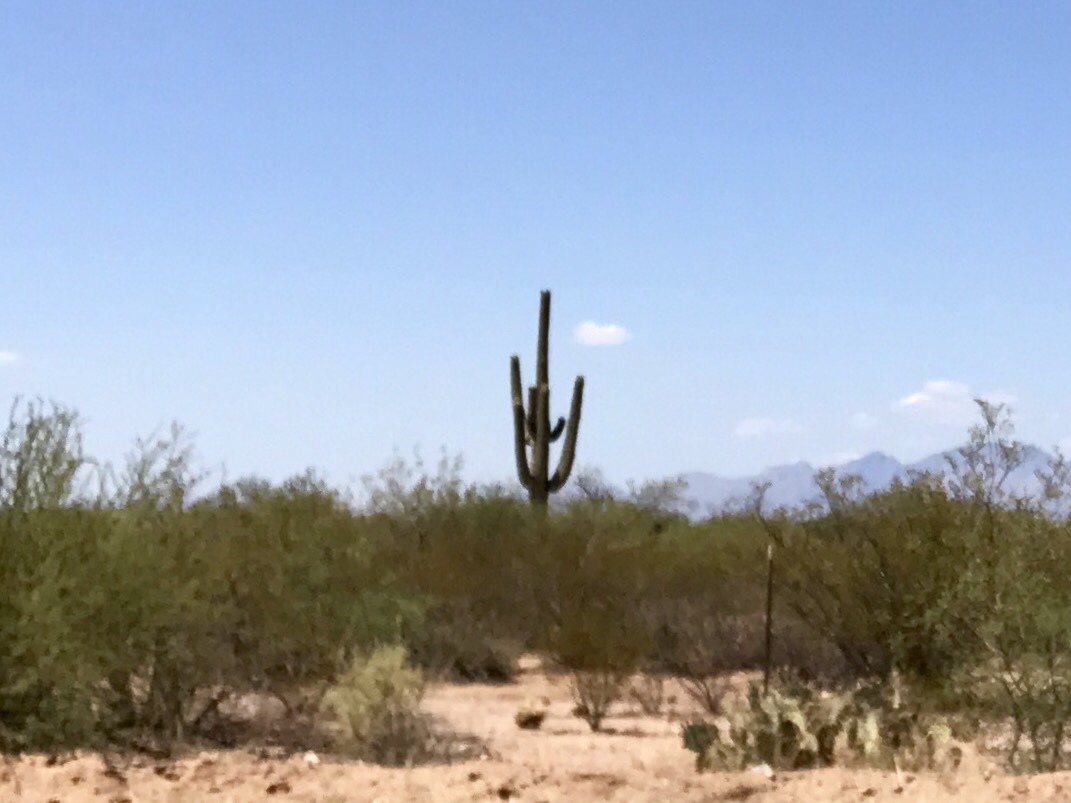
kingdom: Plantae
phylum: Tracheophyta
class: Magnoliopsida
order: Caryophyllales
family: Cactaceae
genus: Carnegiea
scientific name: Carnegiea gigantea
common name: Saguaro
